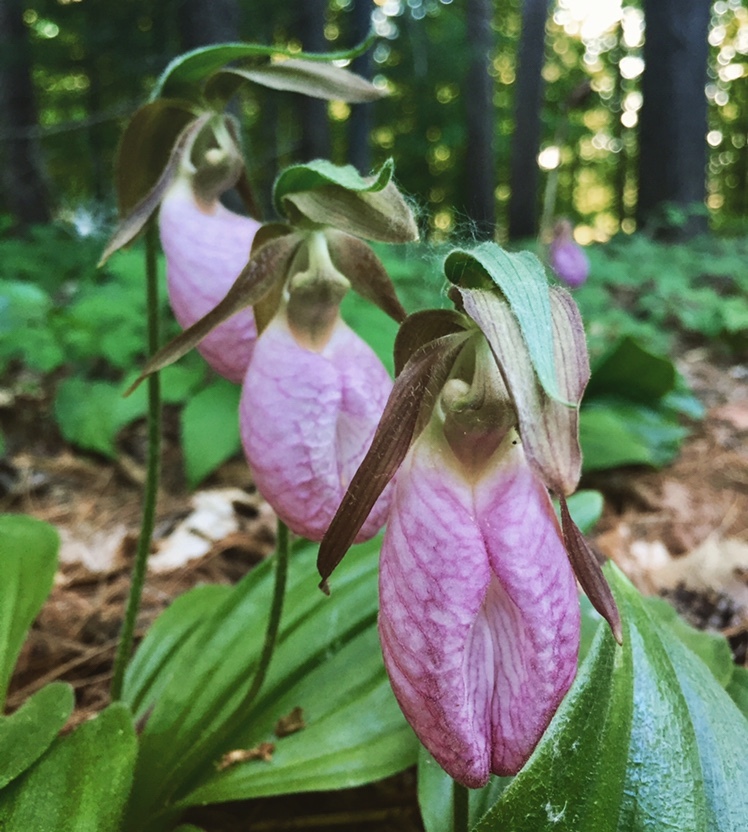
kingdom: Plantae
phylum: Tracheophyta
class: Liliopsida
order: Asparagales
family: Orchidaceae
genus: Cypripedium
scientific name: Cypripedium acaule
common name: Pink lady's-slipper
